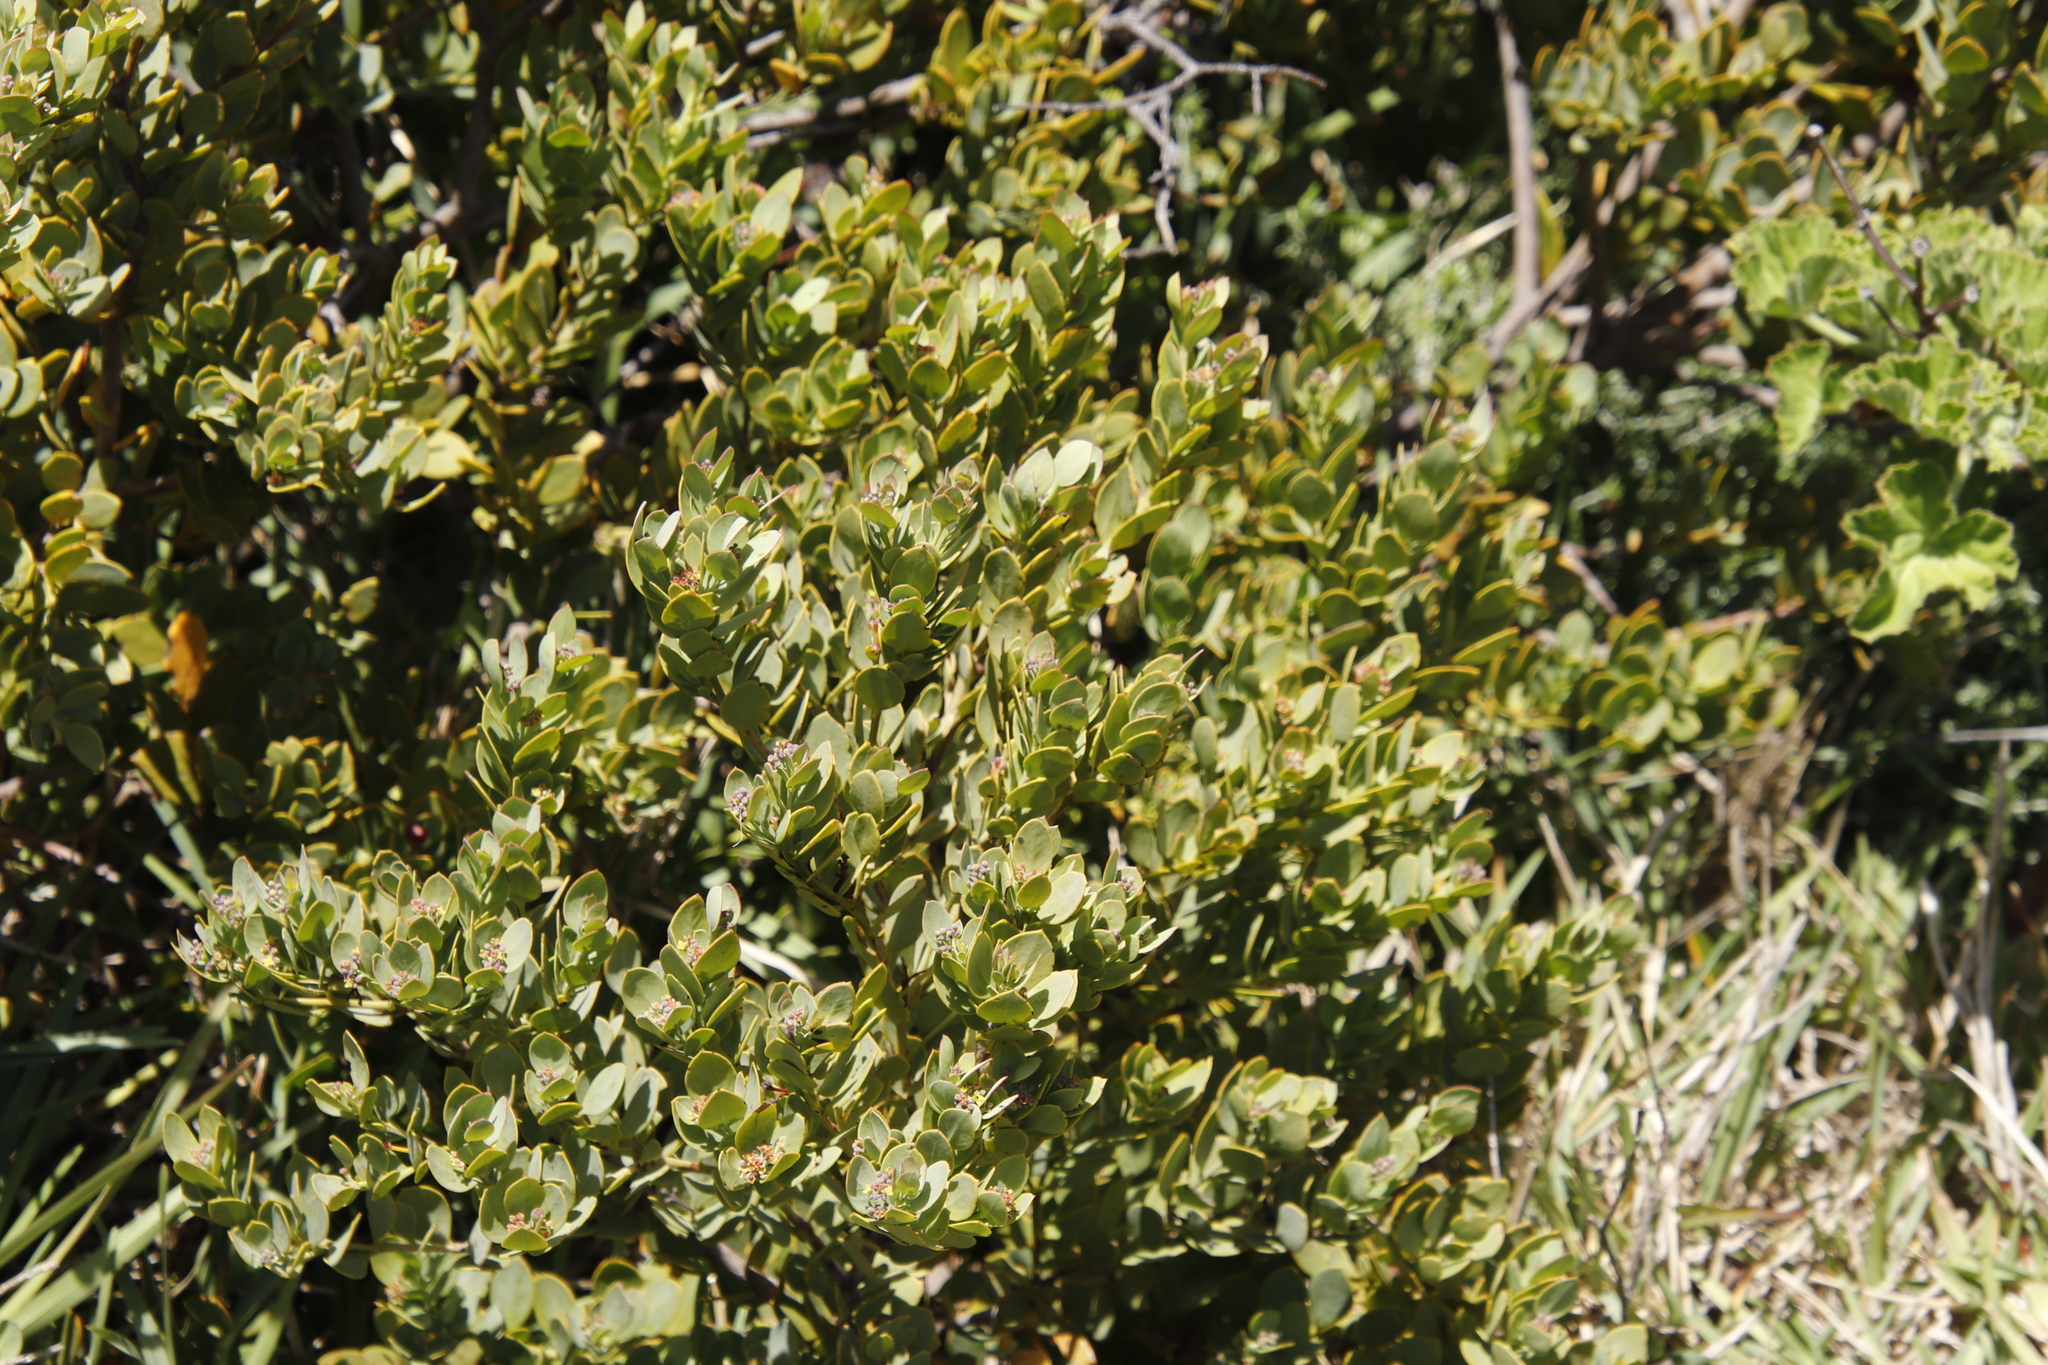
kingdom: Plantae
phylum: Tracheophyta
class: Magnoliopsida
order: Santalales
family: Santalaceae
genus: Osyris
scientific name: Osyris compressa
